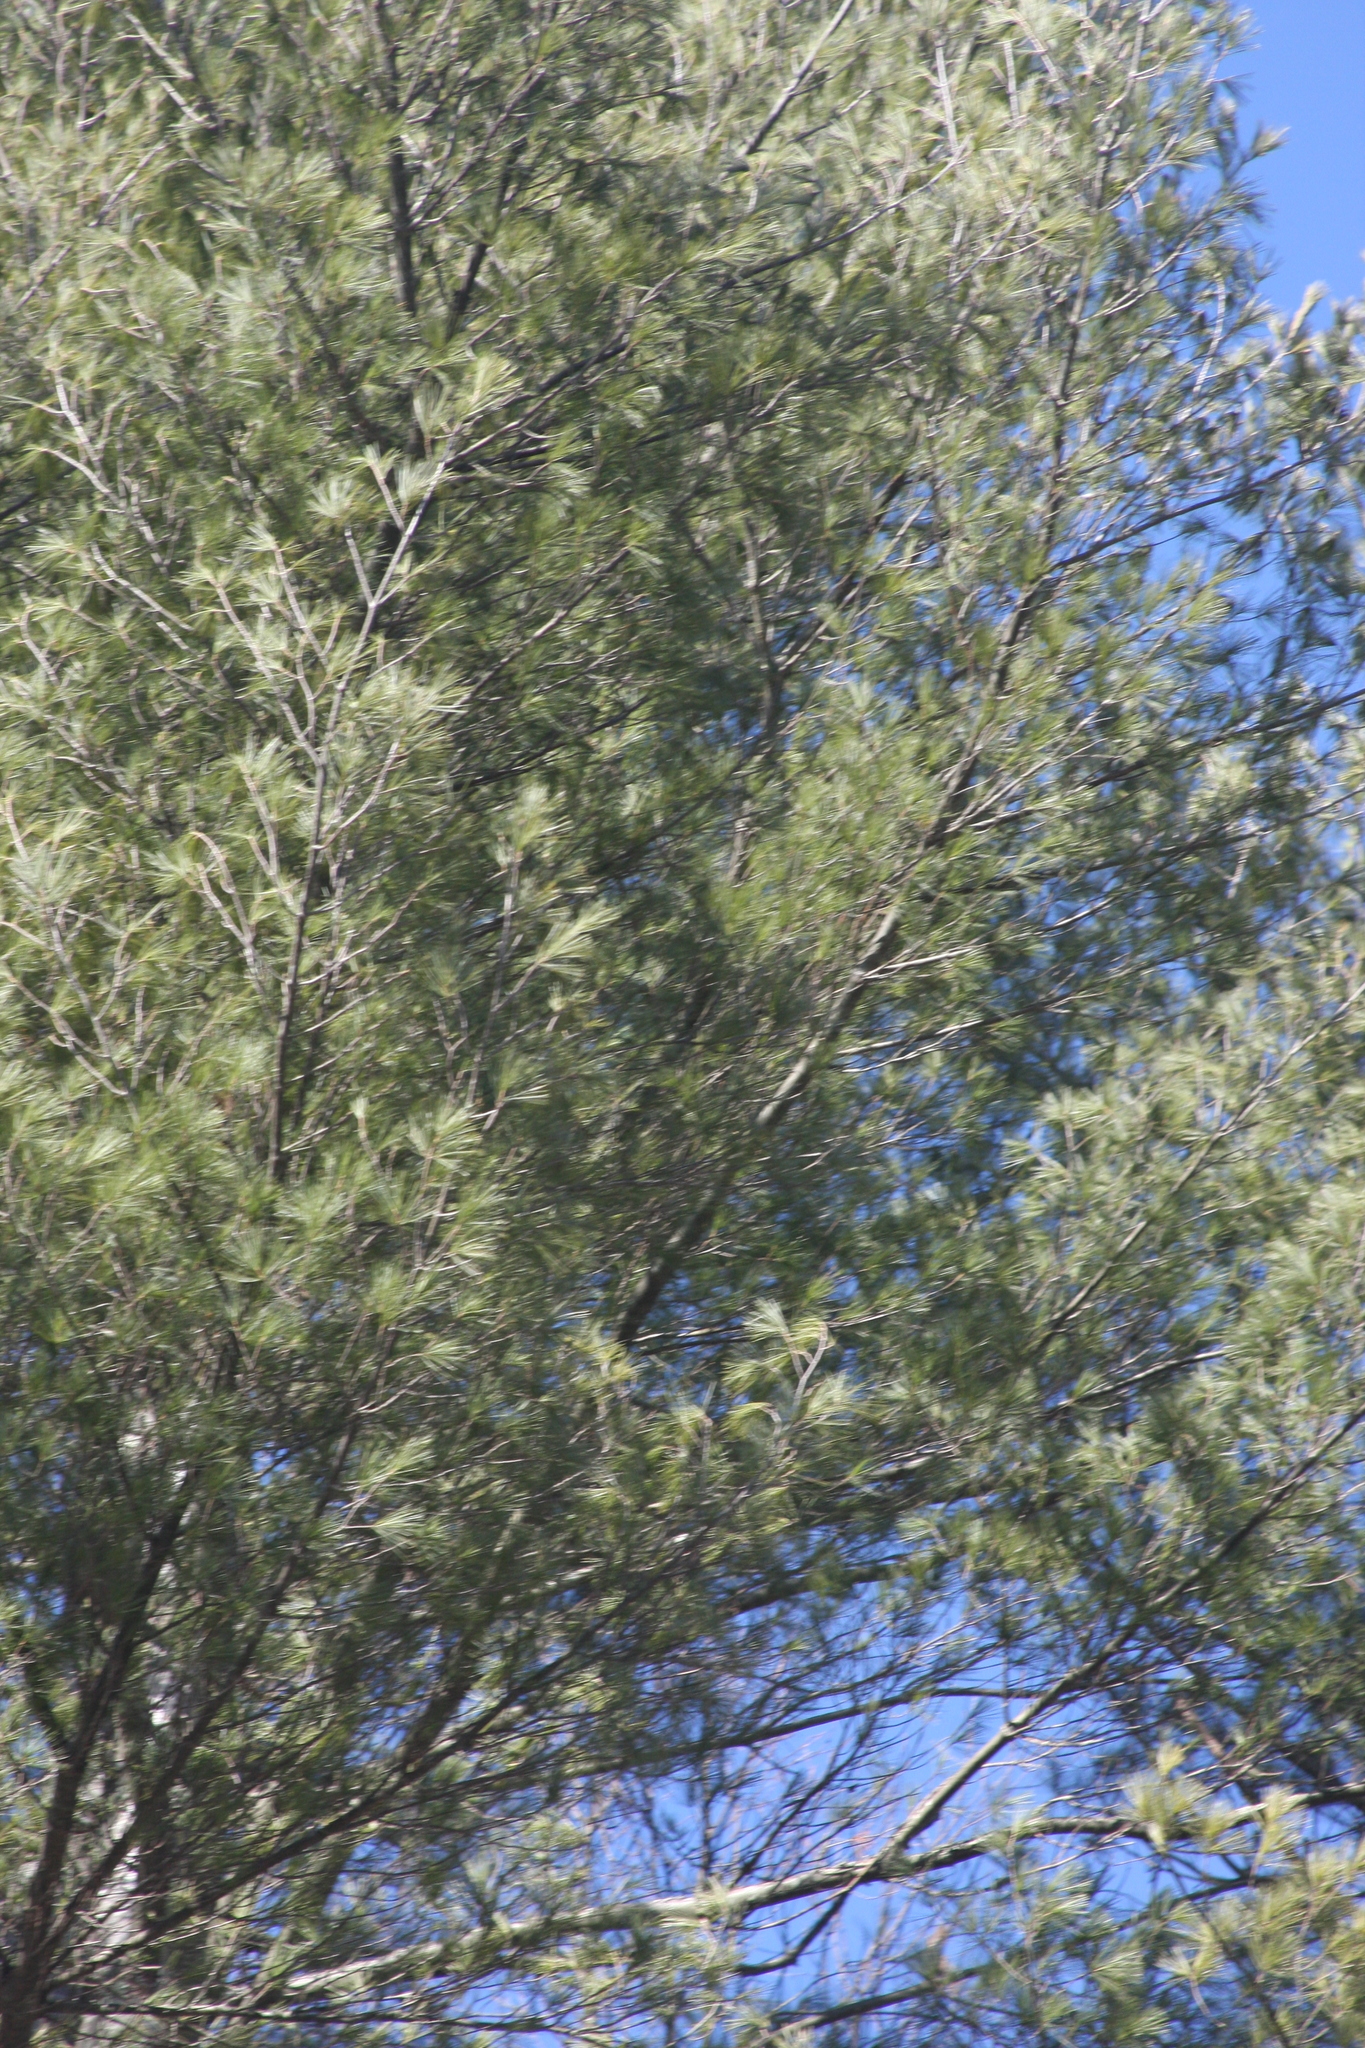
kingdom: Plantae
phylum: Tracheophyta
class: Pinopsida
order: Pinales
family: Pinaceae
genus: Pinus
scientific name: Pinus strobus
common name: Weymouth pine
